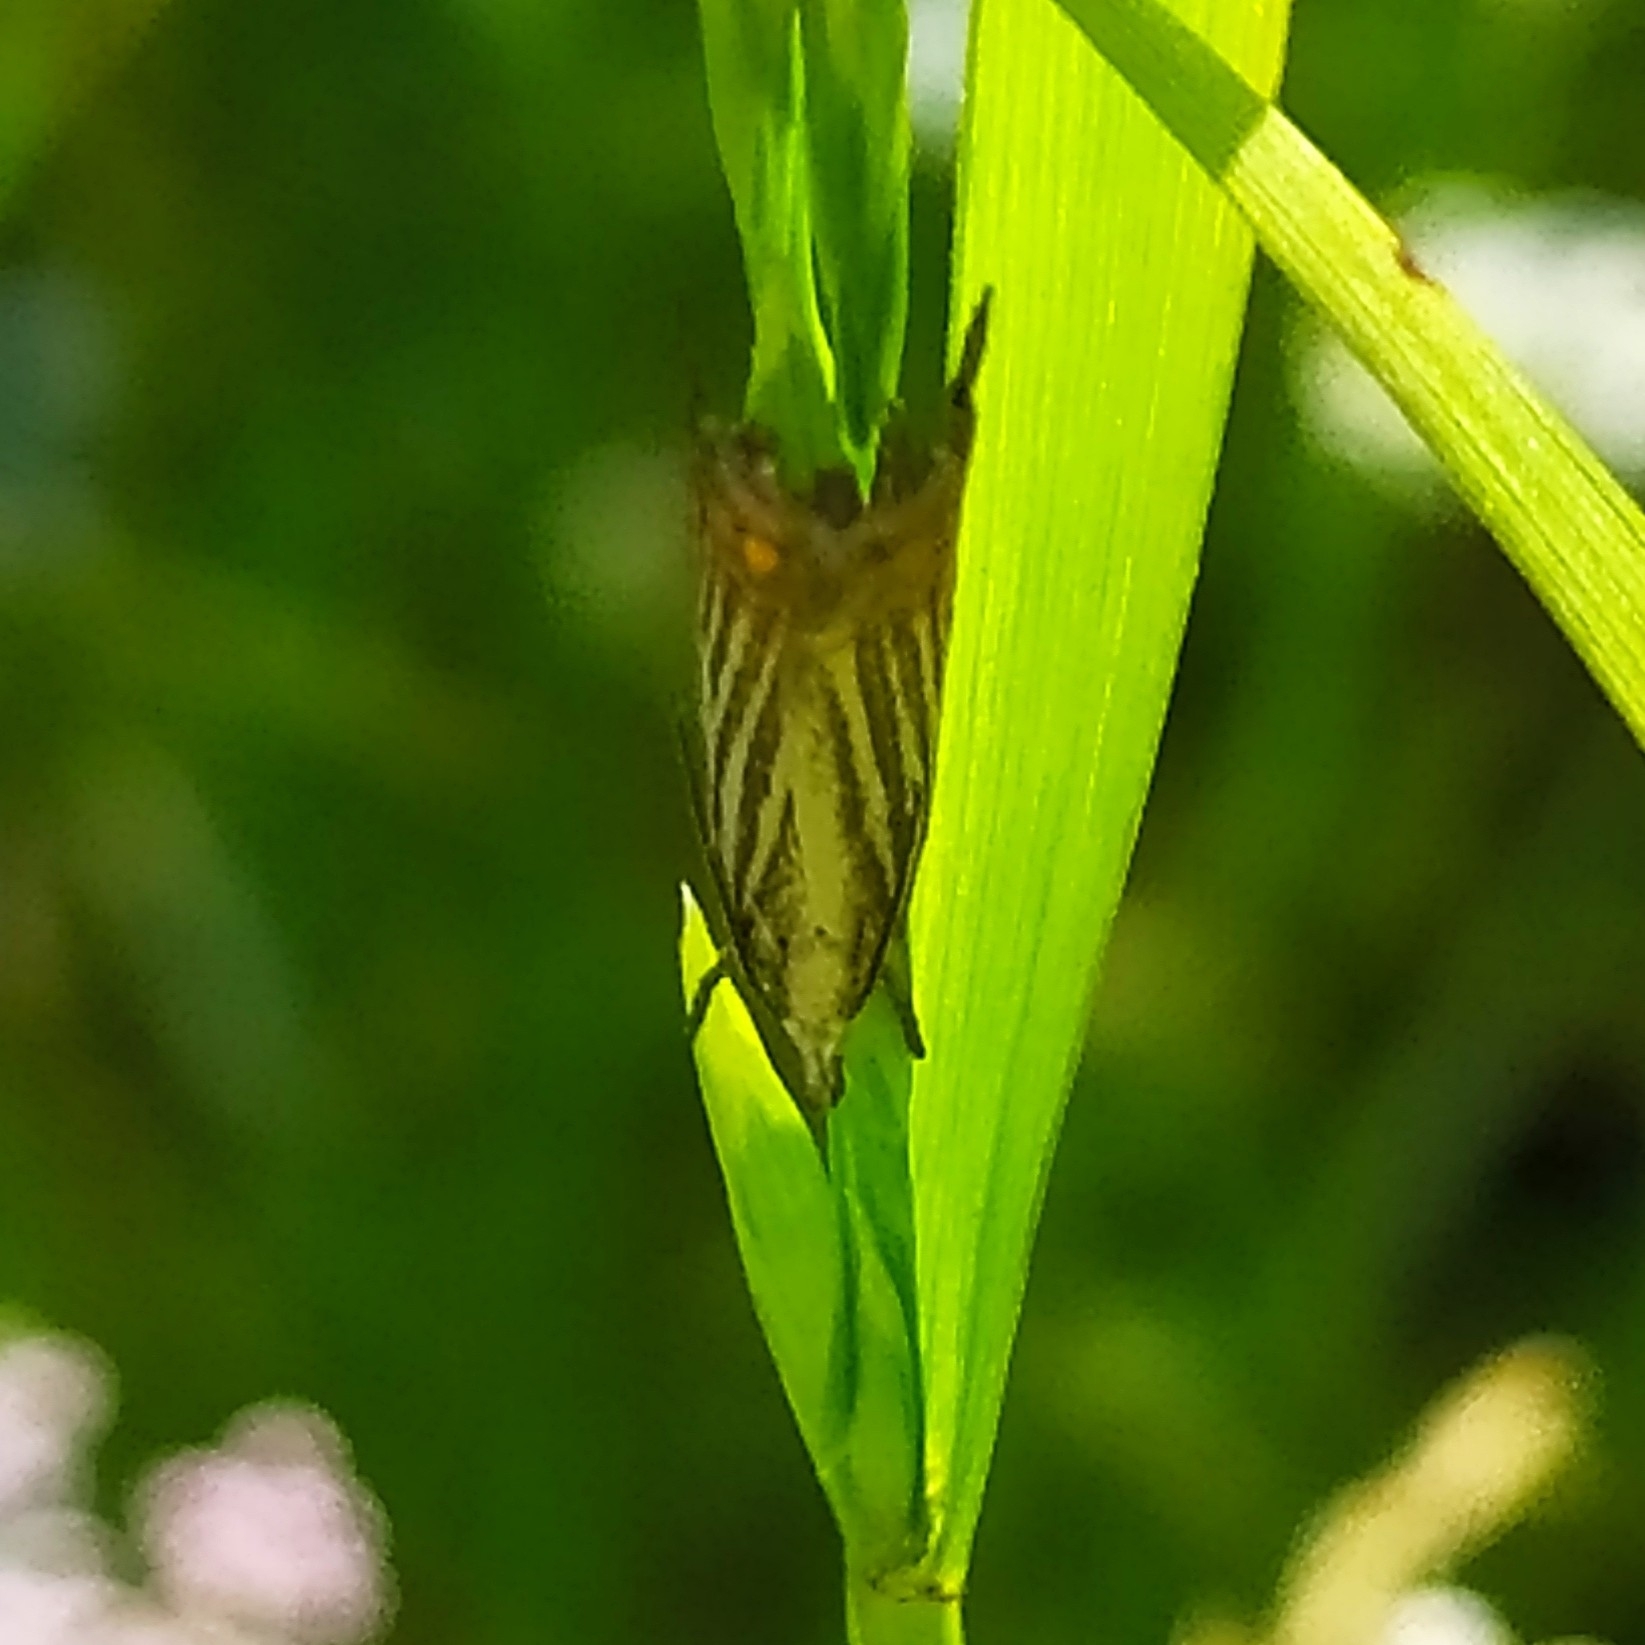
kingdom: Animalia
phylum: Arthropoda
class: Insecta
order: Lepidoptera
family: Crambidae
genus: Chrysoteuchia
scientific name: Chrysoteuchia culmella
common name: Garden grass-veneer
